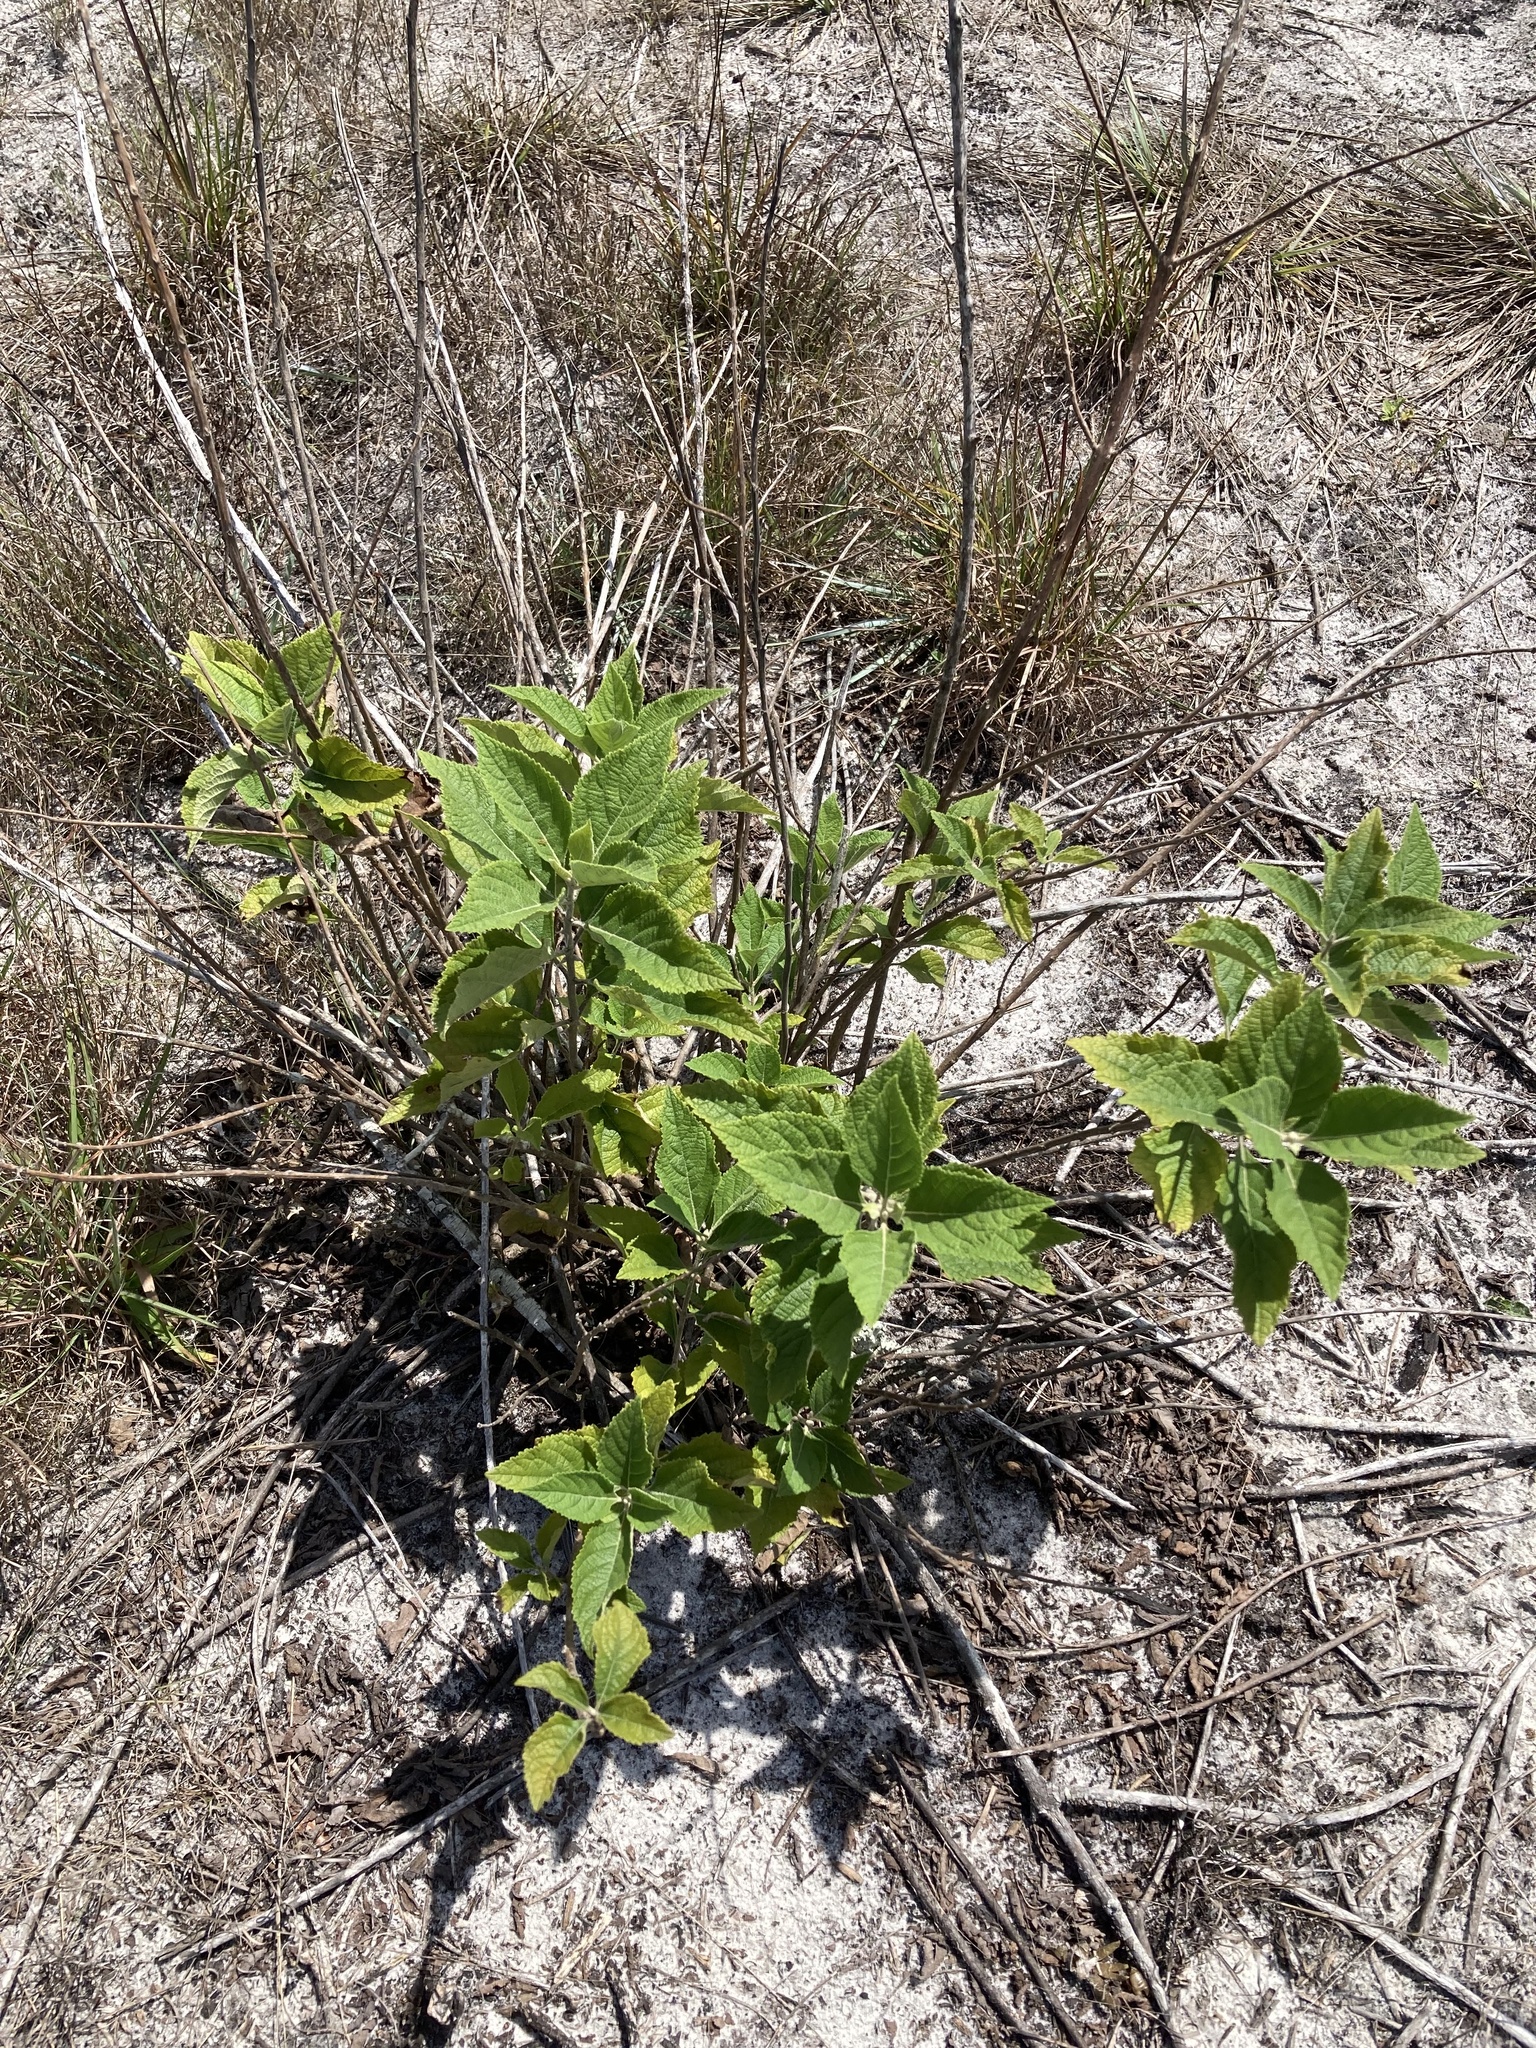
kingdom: Plantae
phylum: Tracheophyta
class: Magnoliopsida
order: Lamiales
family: Lamiaceae
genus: Callicarpa
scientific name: Callicarpa americana
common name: American beautyberry
